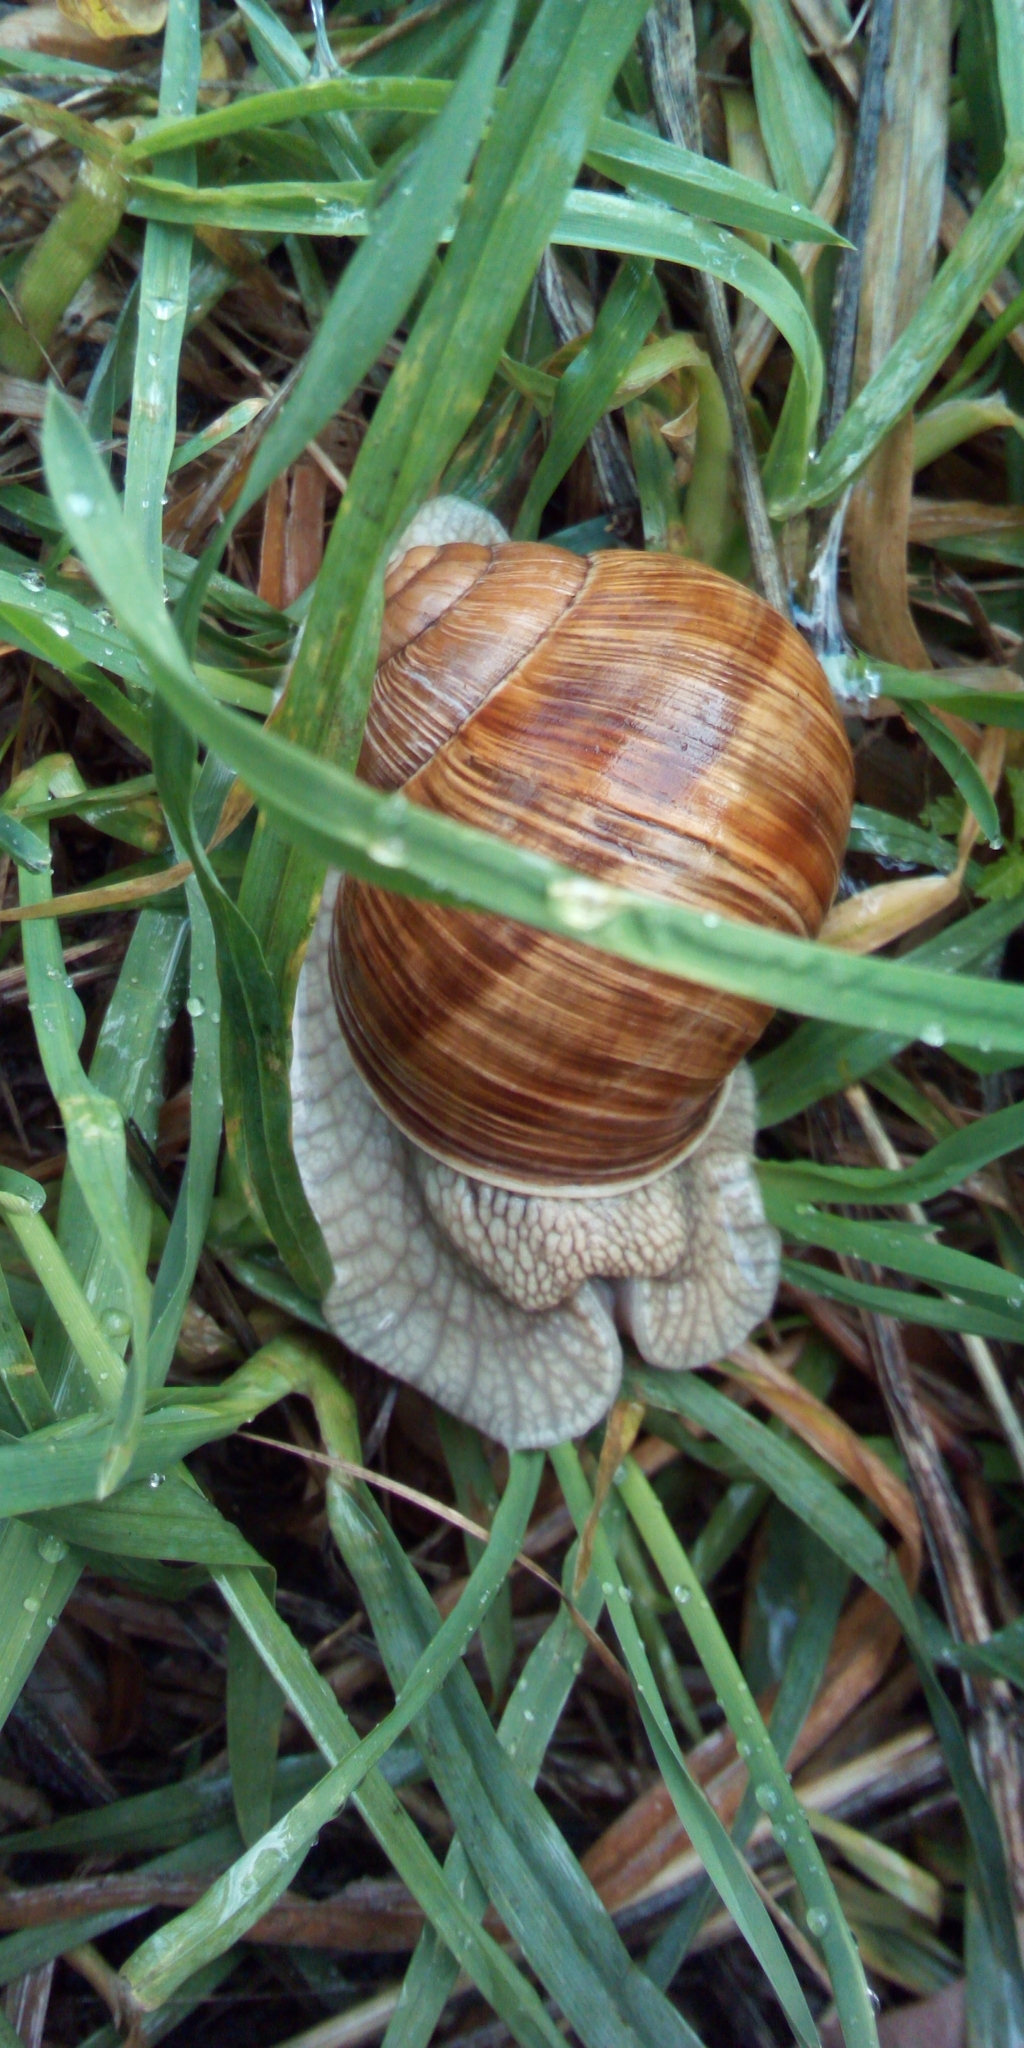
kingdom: Animalia
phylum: Mollusca
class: Gastropoda
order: Stylommatophora
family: Helicidae
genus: Helix
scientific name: Helix pomatia
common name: Roman snail
